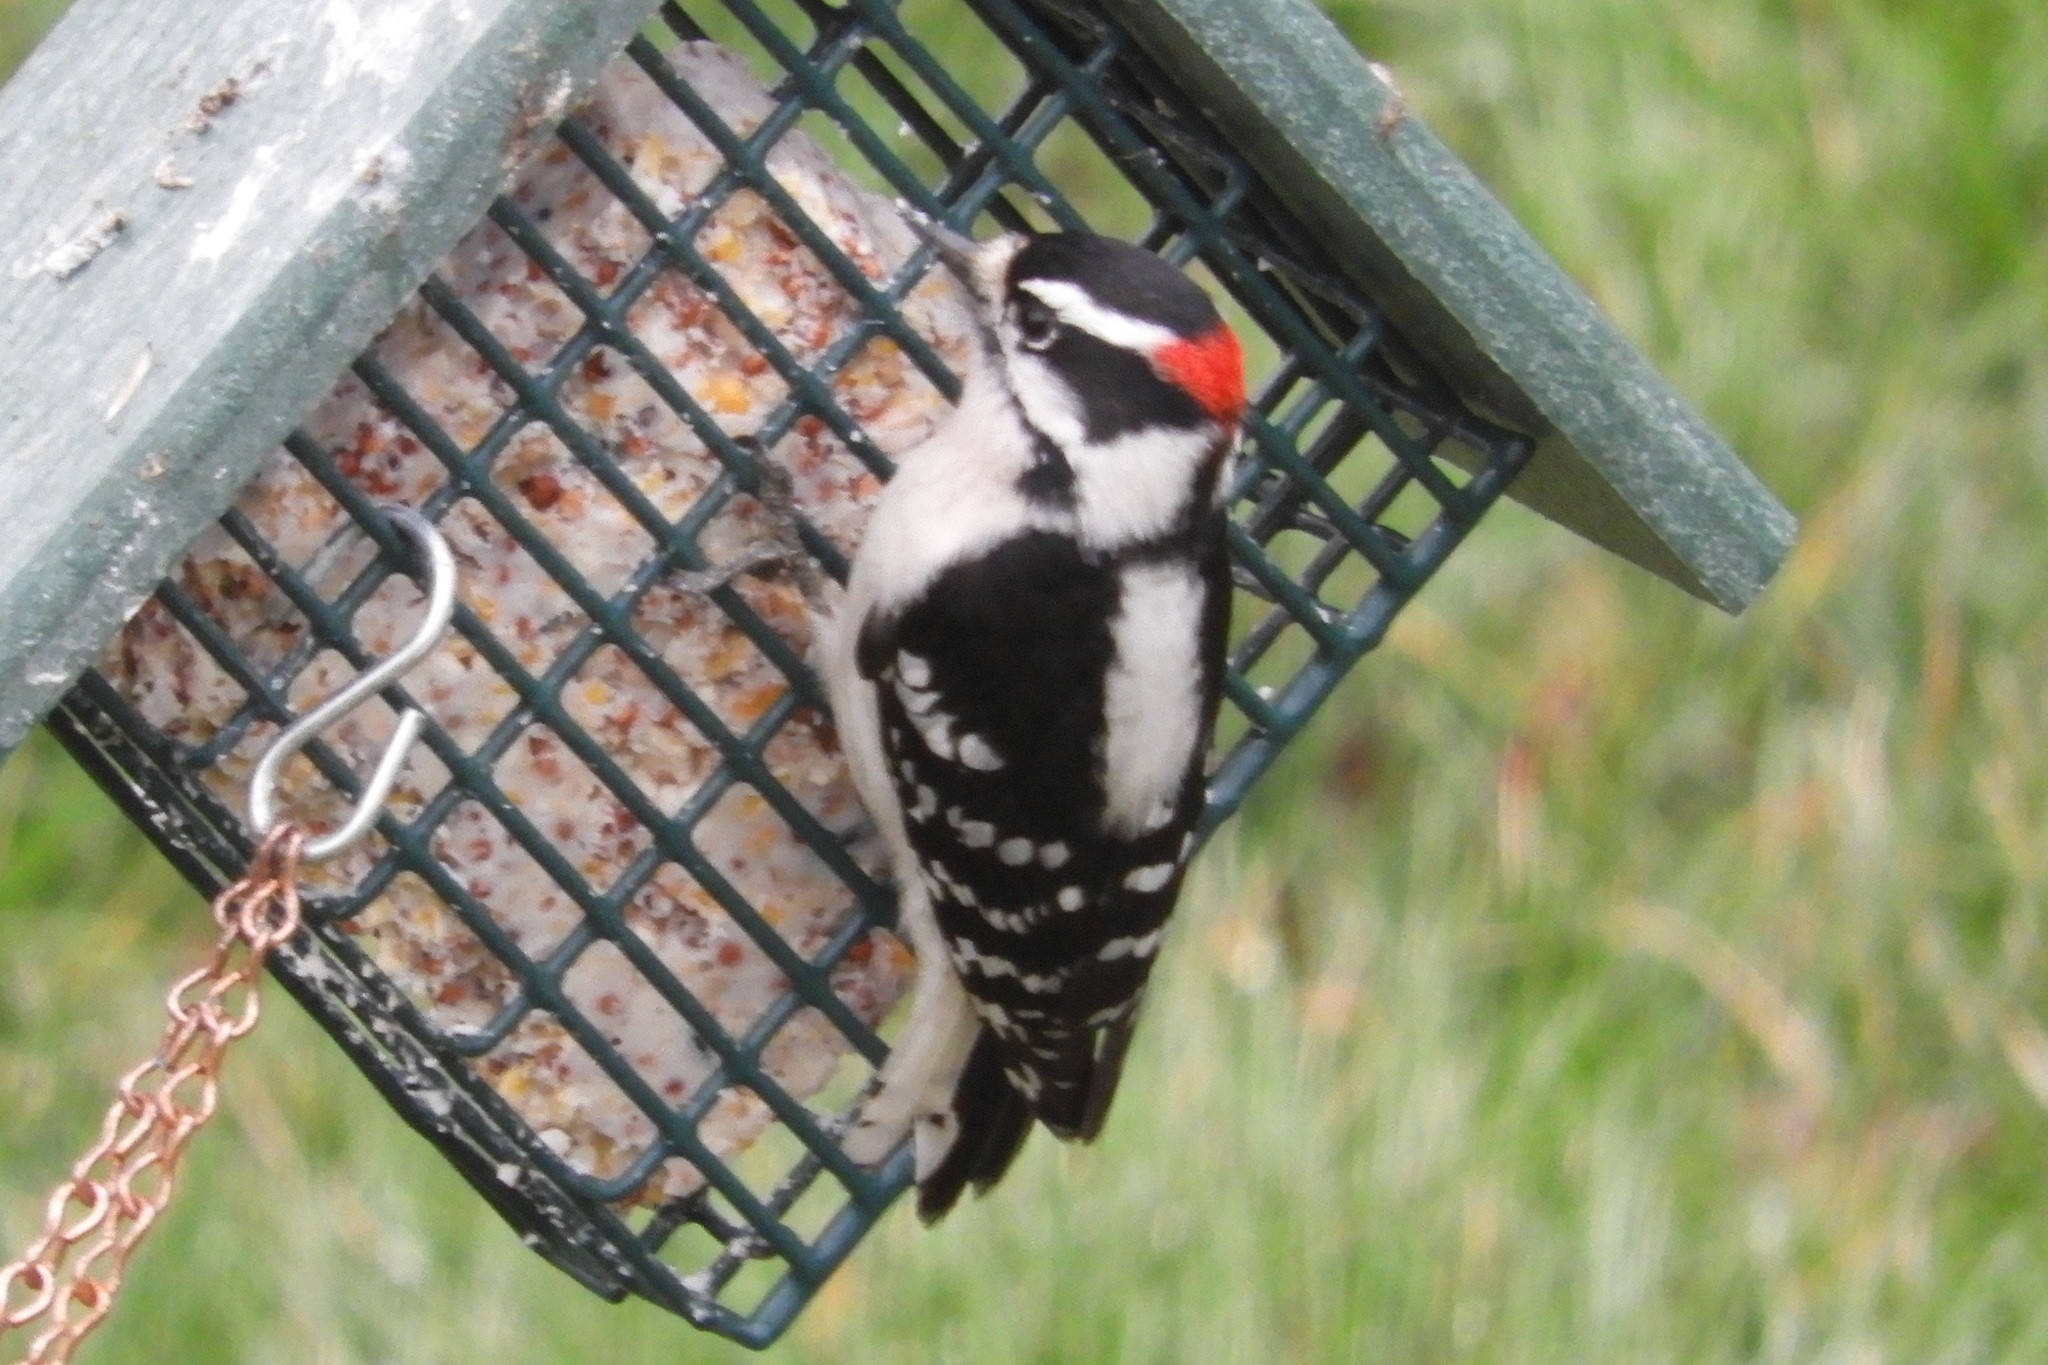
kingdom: Animalia
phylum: Chordata
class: Aves
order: Piciformes
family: Picidae
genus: Dryobates
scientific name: Dryobates pubescens
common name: Downy woodpecker
